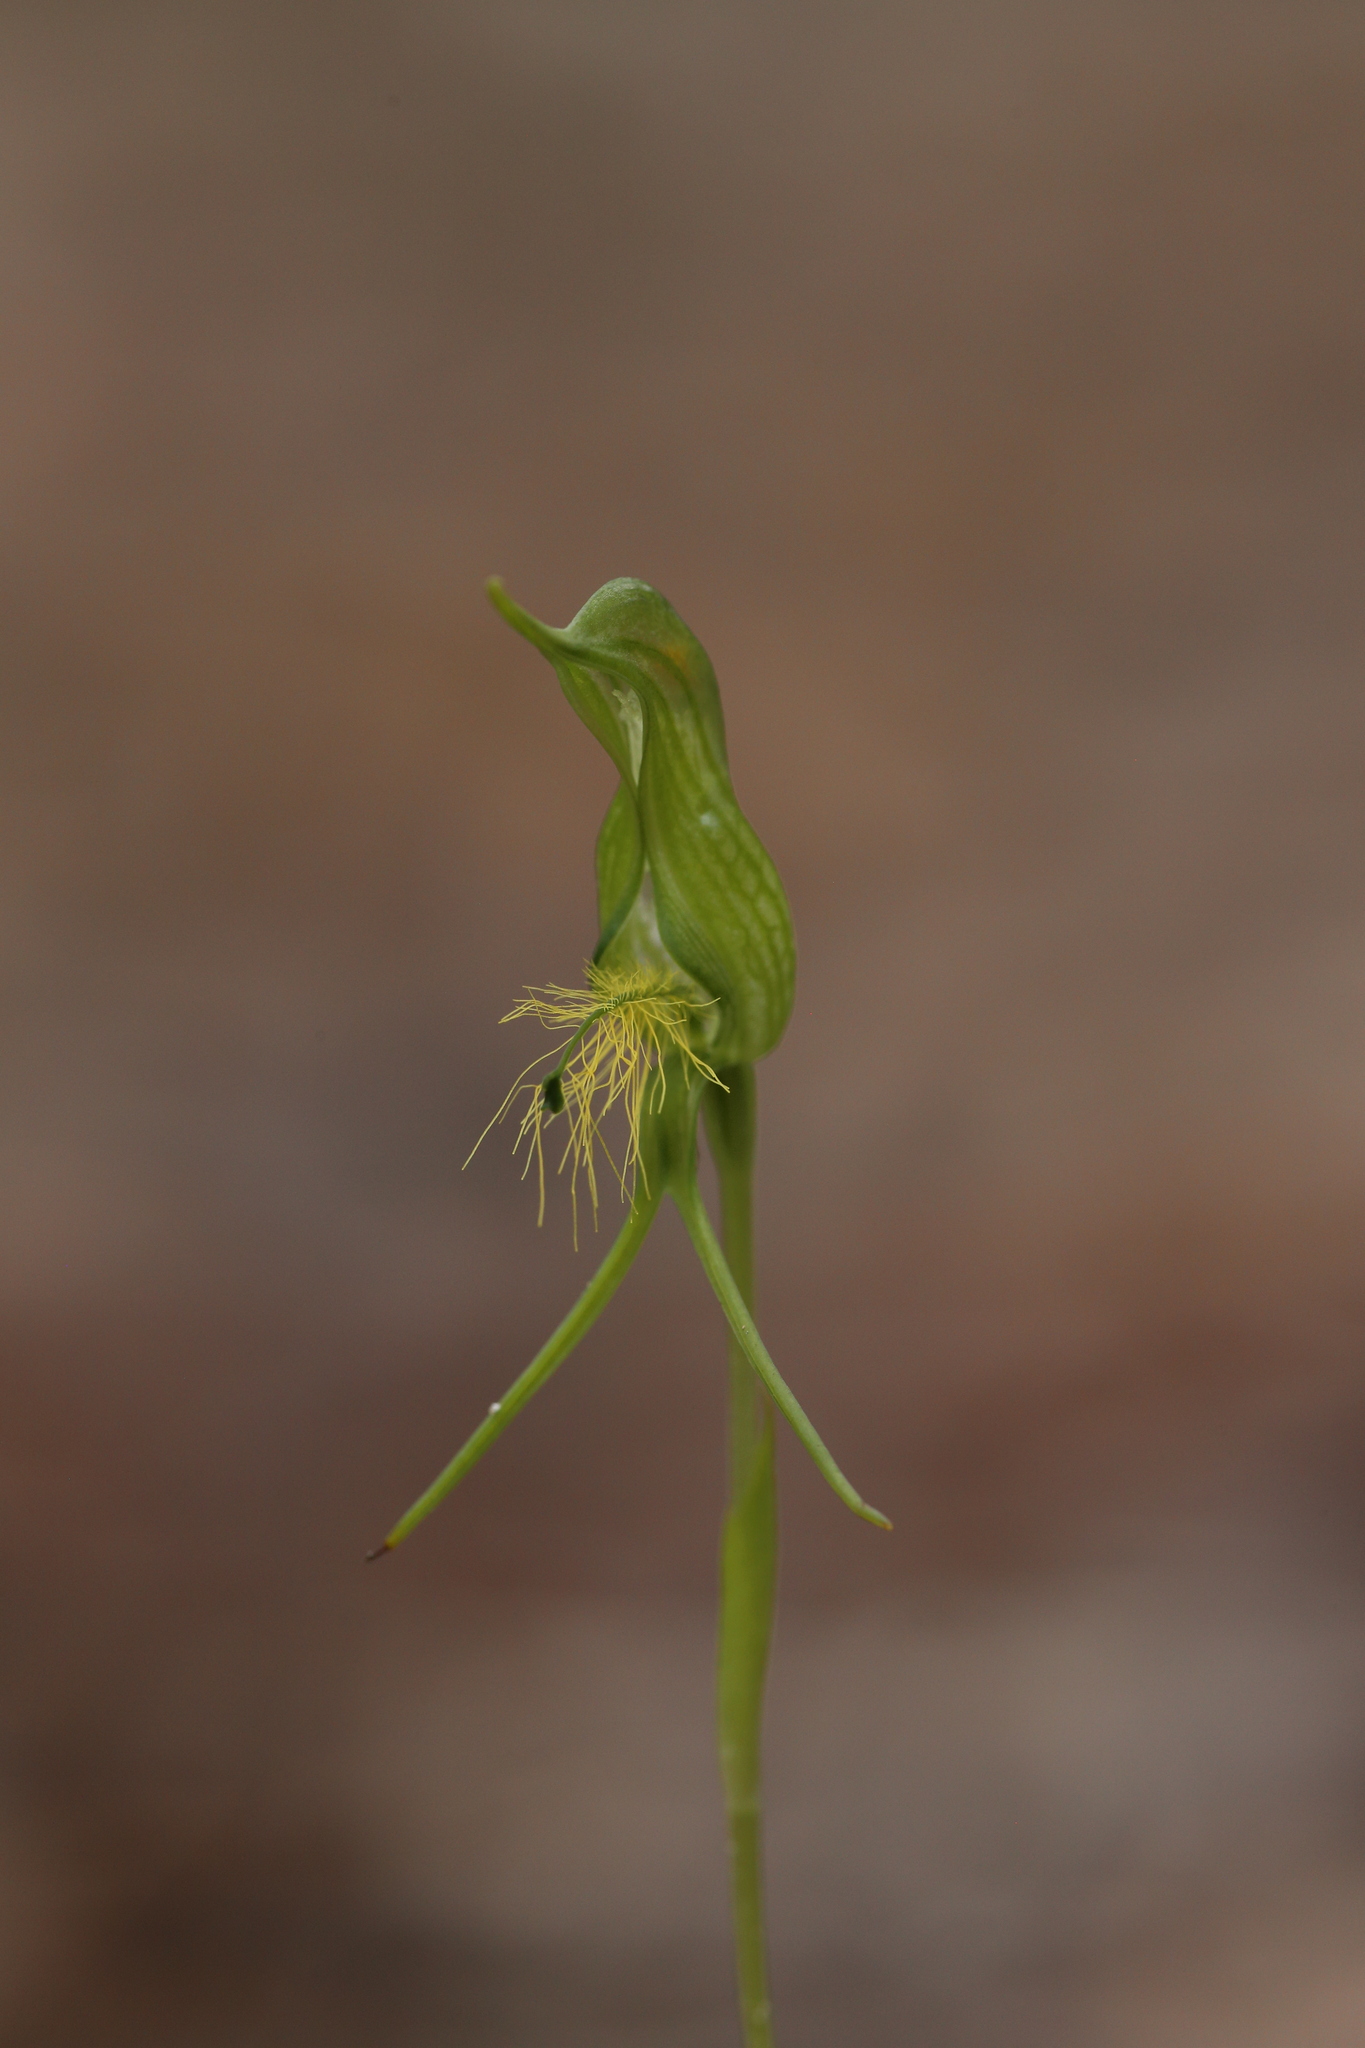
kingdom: Plantae
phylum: Tracheophyta
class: Liliopsida
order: Asparagales
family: Orchidaceae
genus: Pterostylis
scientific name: Pterostylis turfosa
